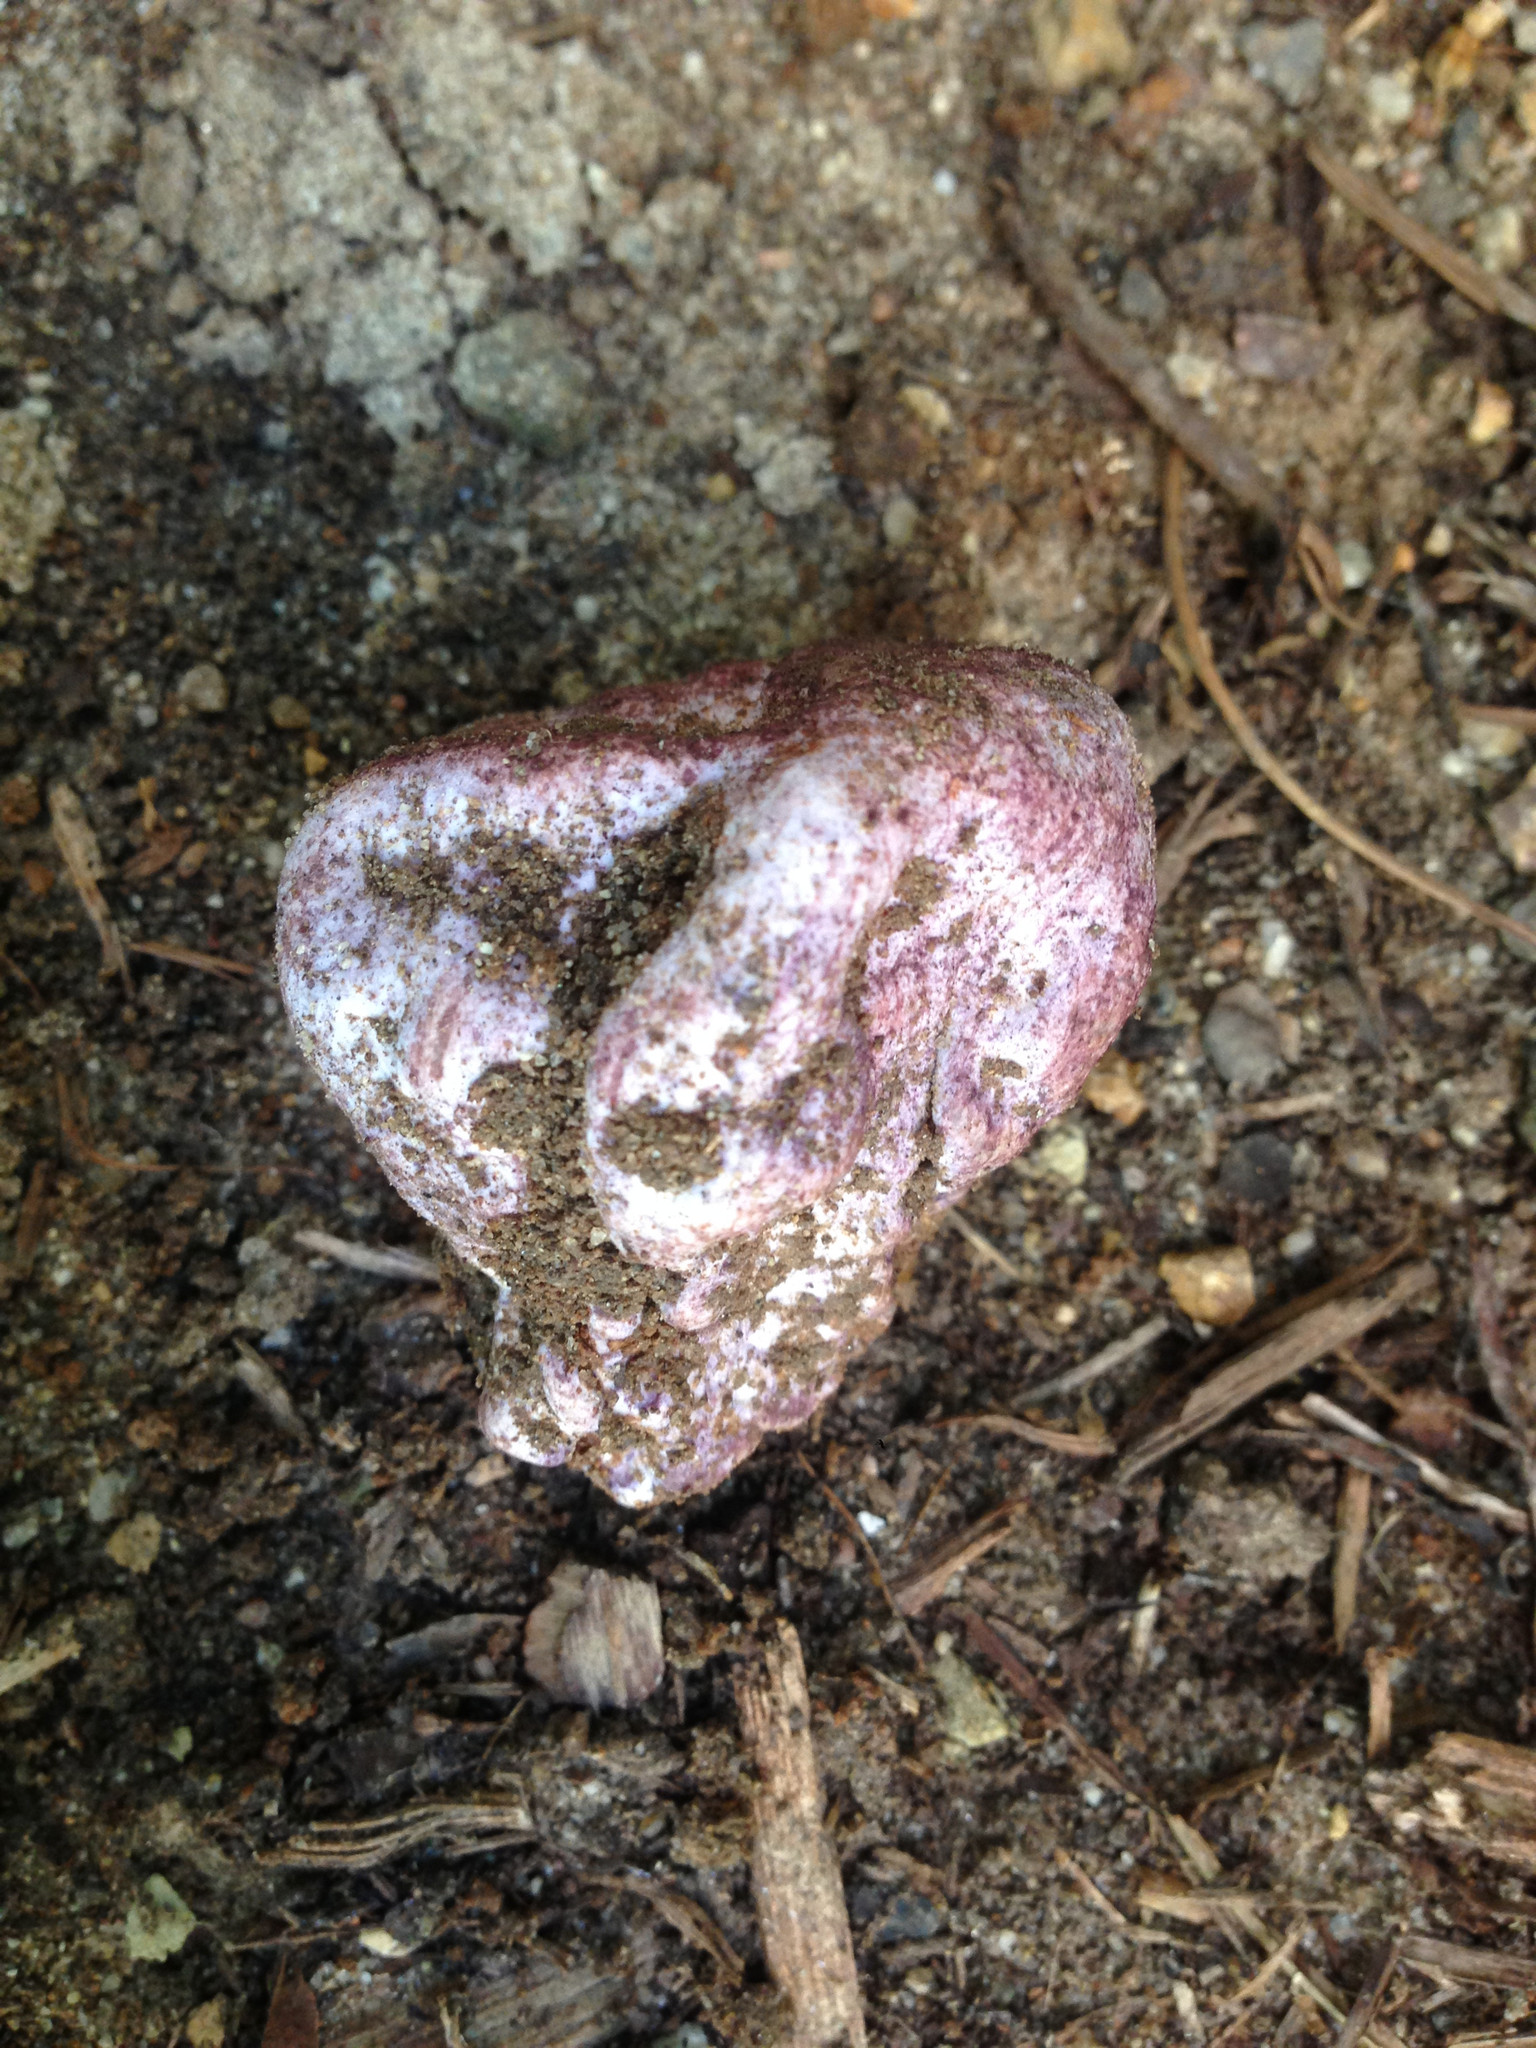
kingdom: Fungi
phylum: Basidiomycota
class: Agaricomycetes
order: Phallales
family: Phallaceae
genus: Phallus
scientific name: Phallus hadriani
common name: Sand stinkhorn
